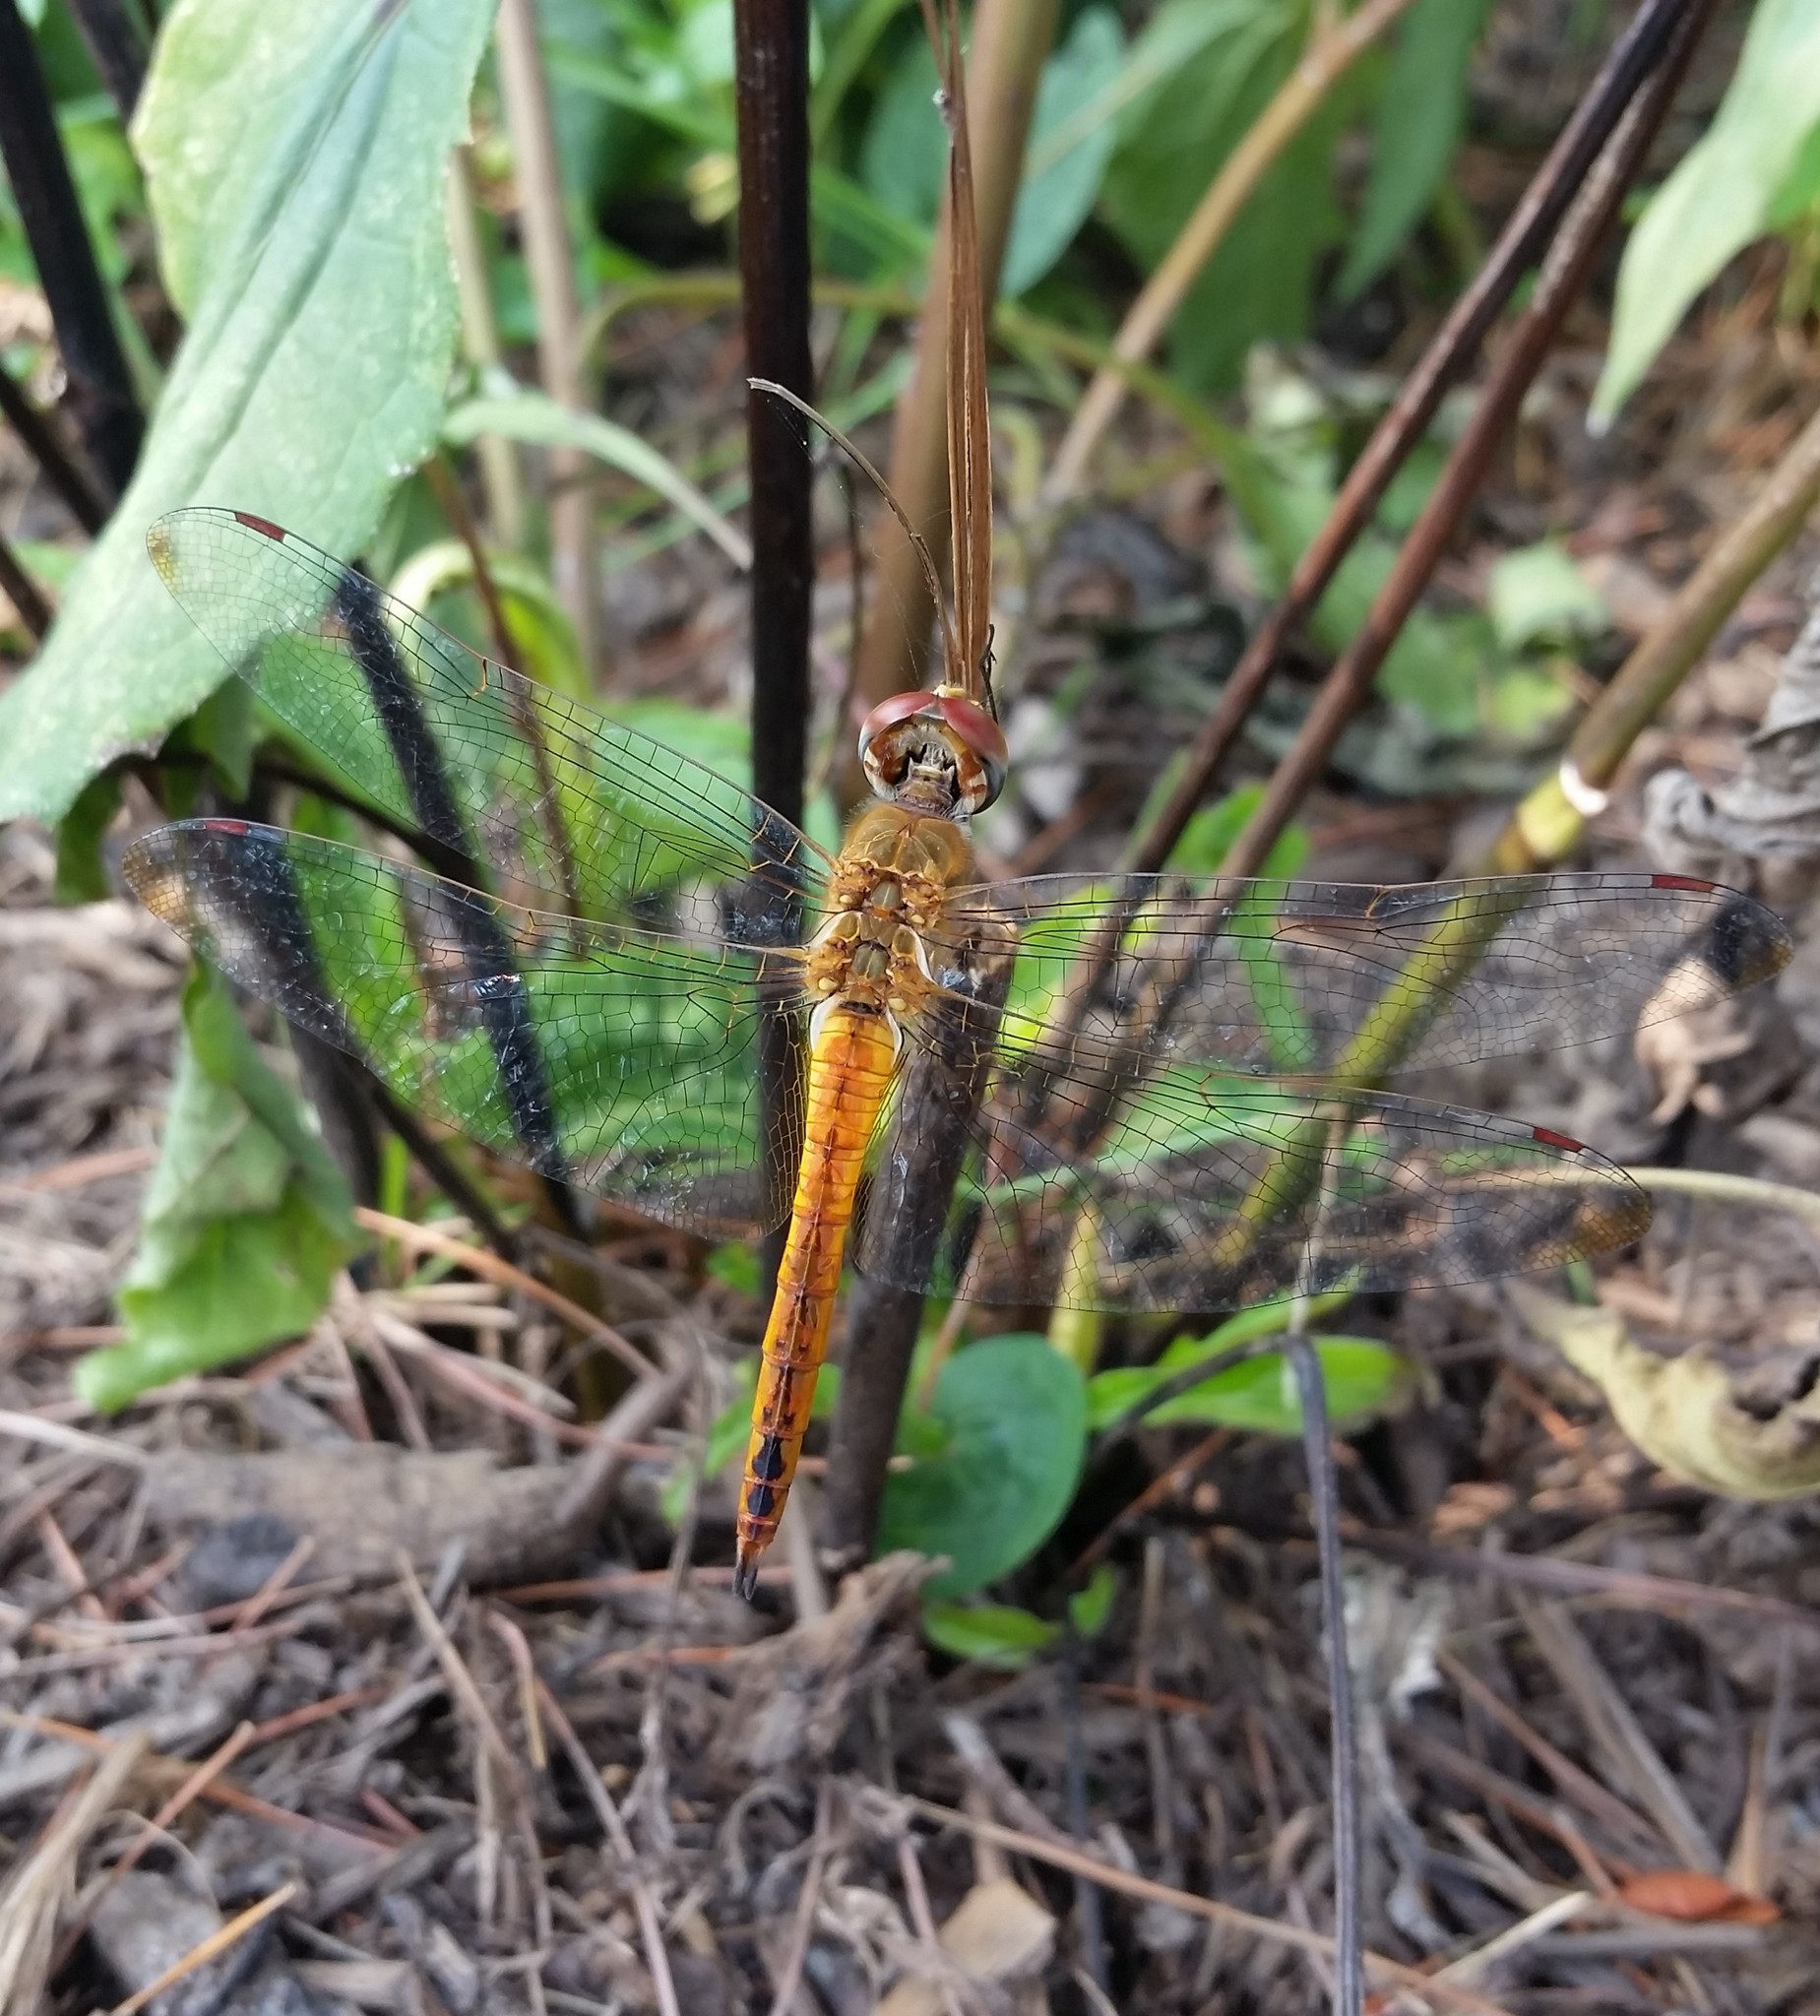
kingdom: Animalia
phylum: Arthropoda
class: Insecta
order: Odonata
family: Libellulidae
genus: Pantala
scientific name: Pantala flavescens
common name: Wandering glider
